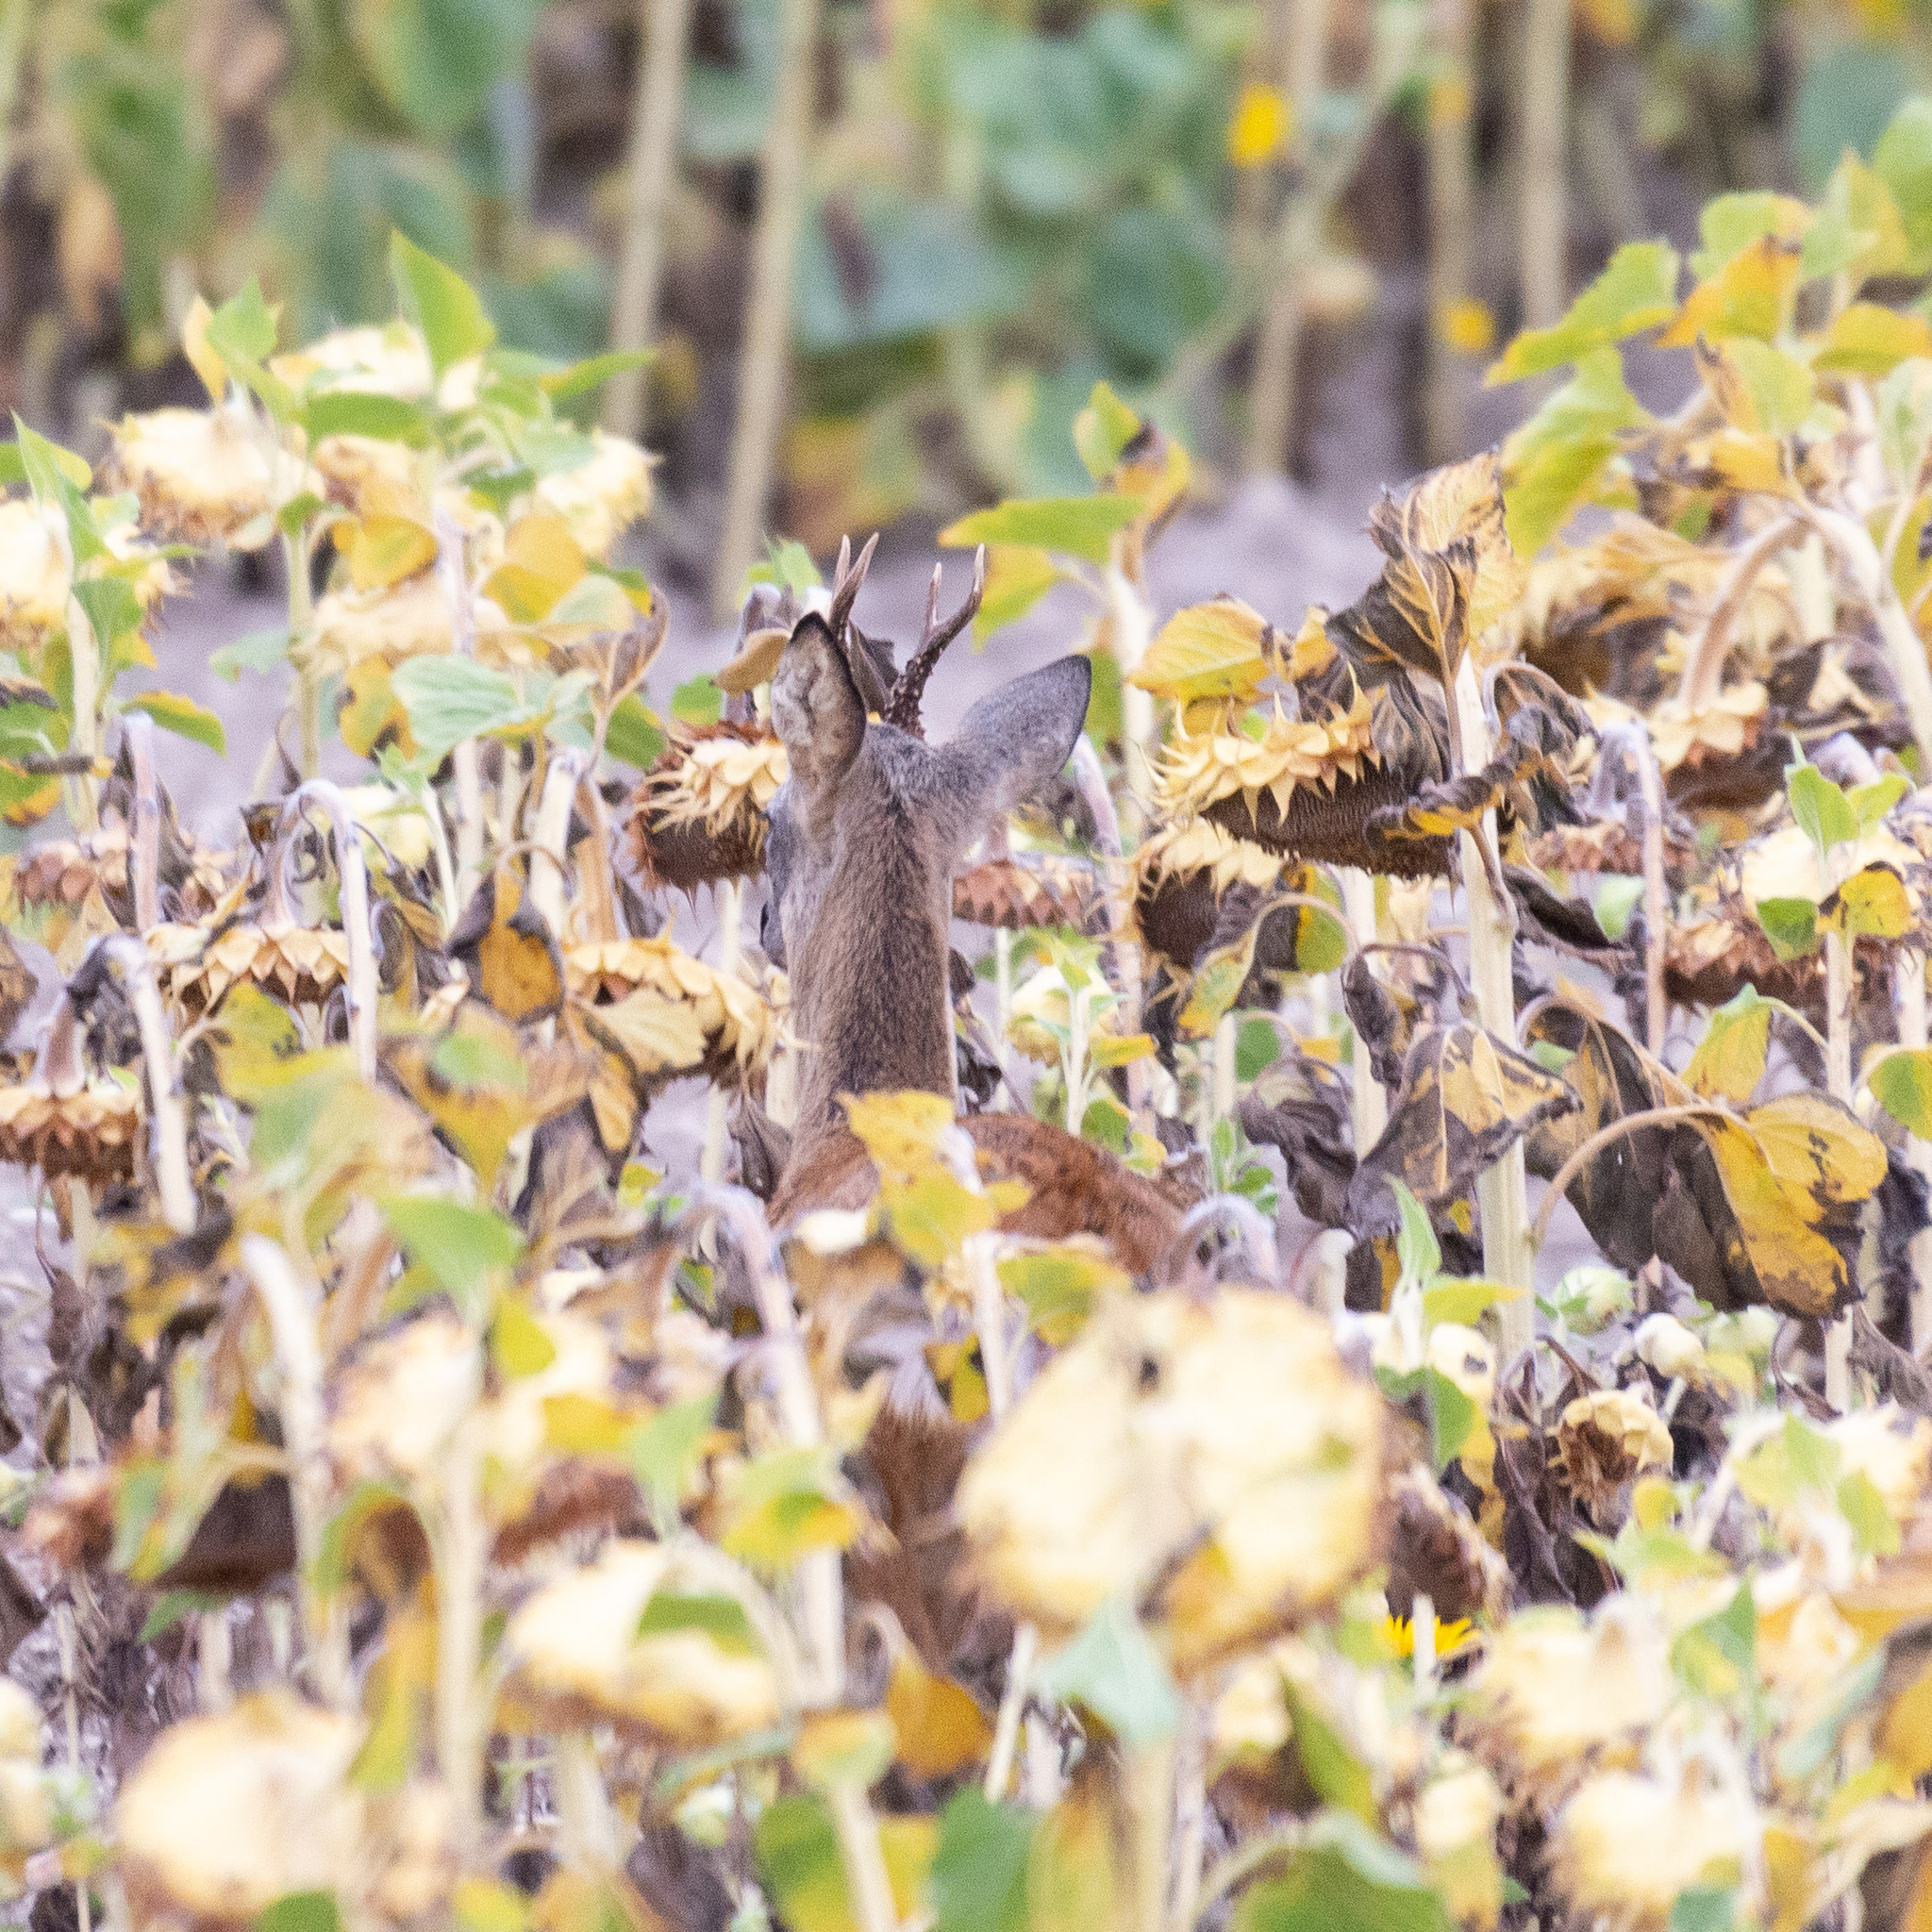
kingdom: Animalia
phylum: Chordata
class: Mammalia
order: Artiodactyla
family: Cervidae
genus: Capreolus
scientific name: Capreolus capreolus
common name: Western roe deer
